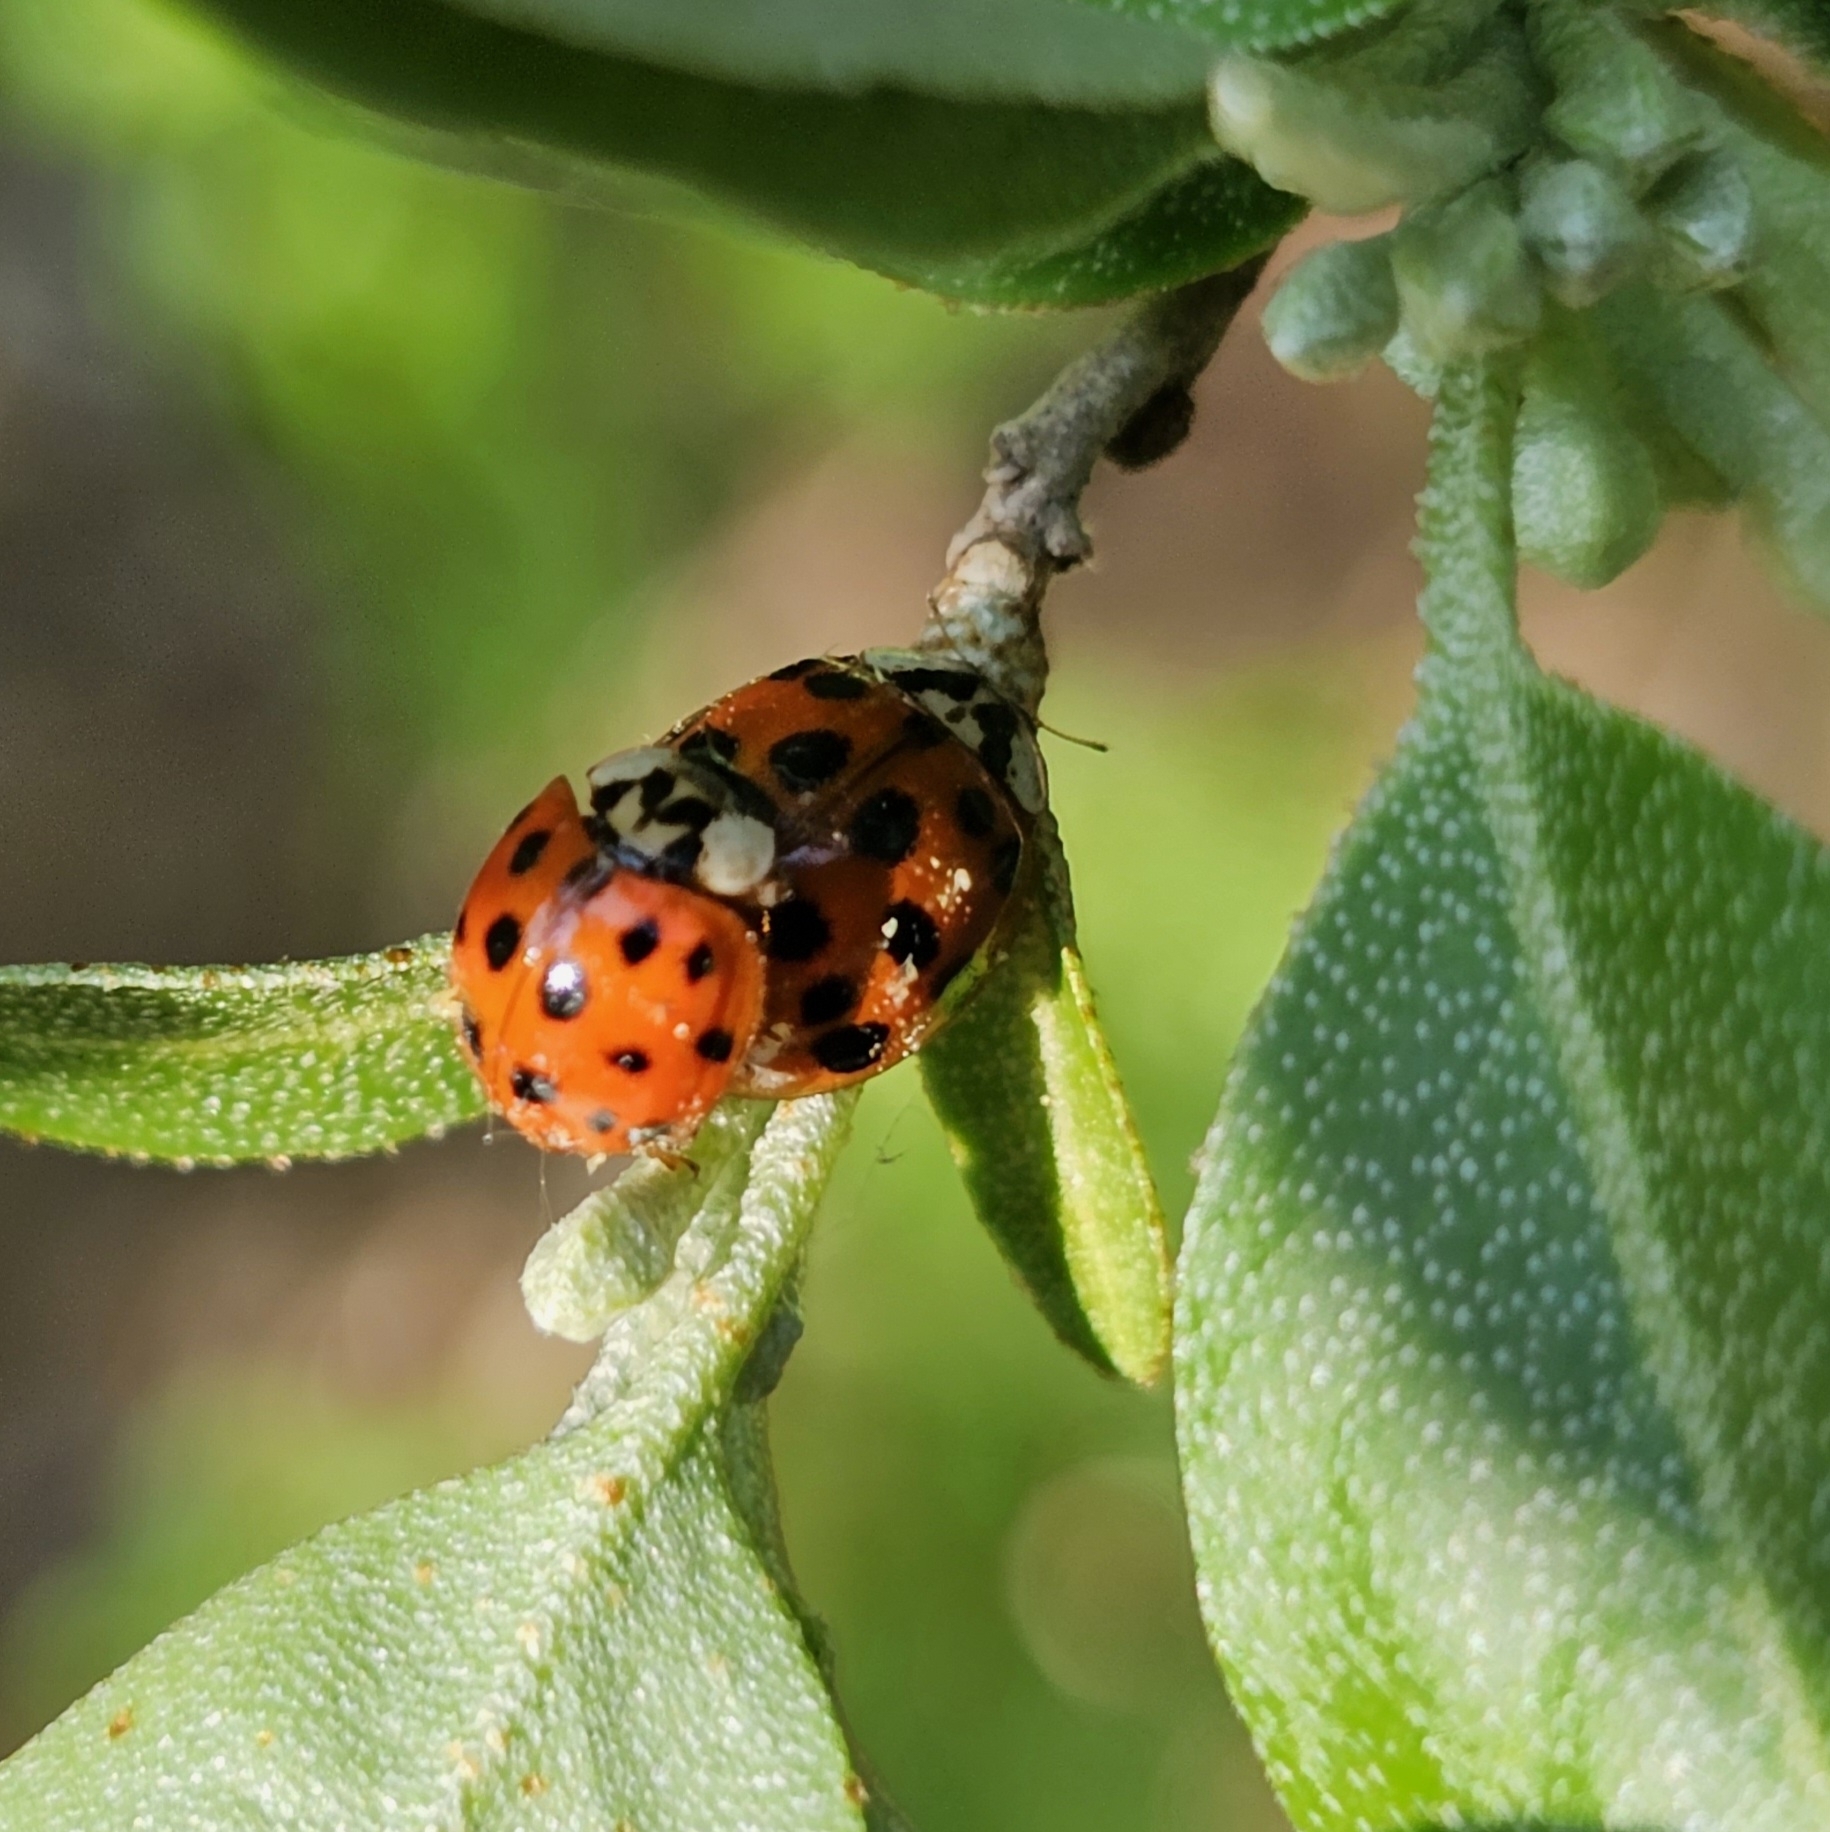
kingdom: Animalia
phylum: Arthropoda
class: Insecta
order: Coleoptera
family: Coccinellidae
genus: Harmonia
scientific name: Harmonia axyridis
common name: Harlequin ladybird
